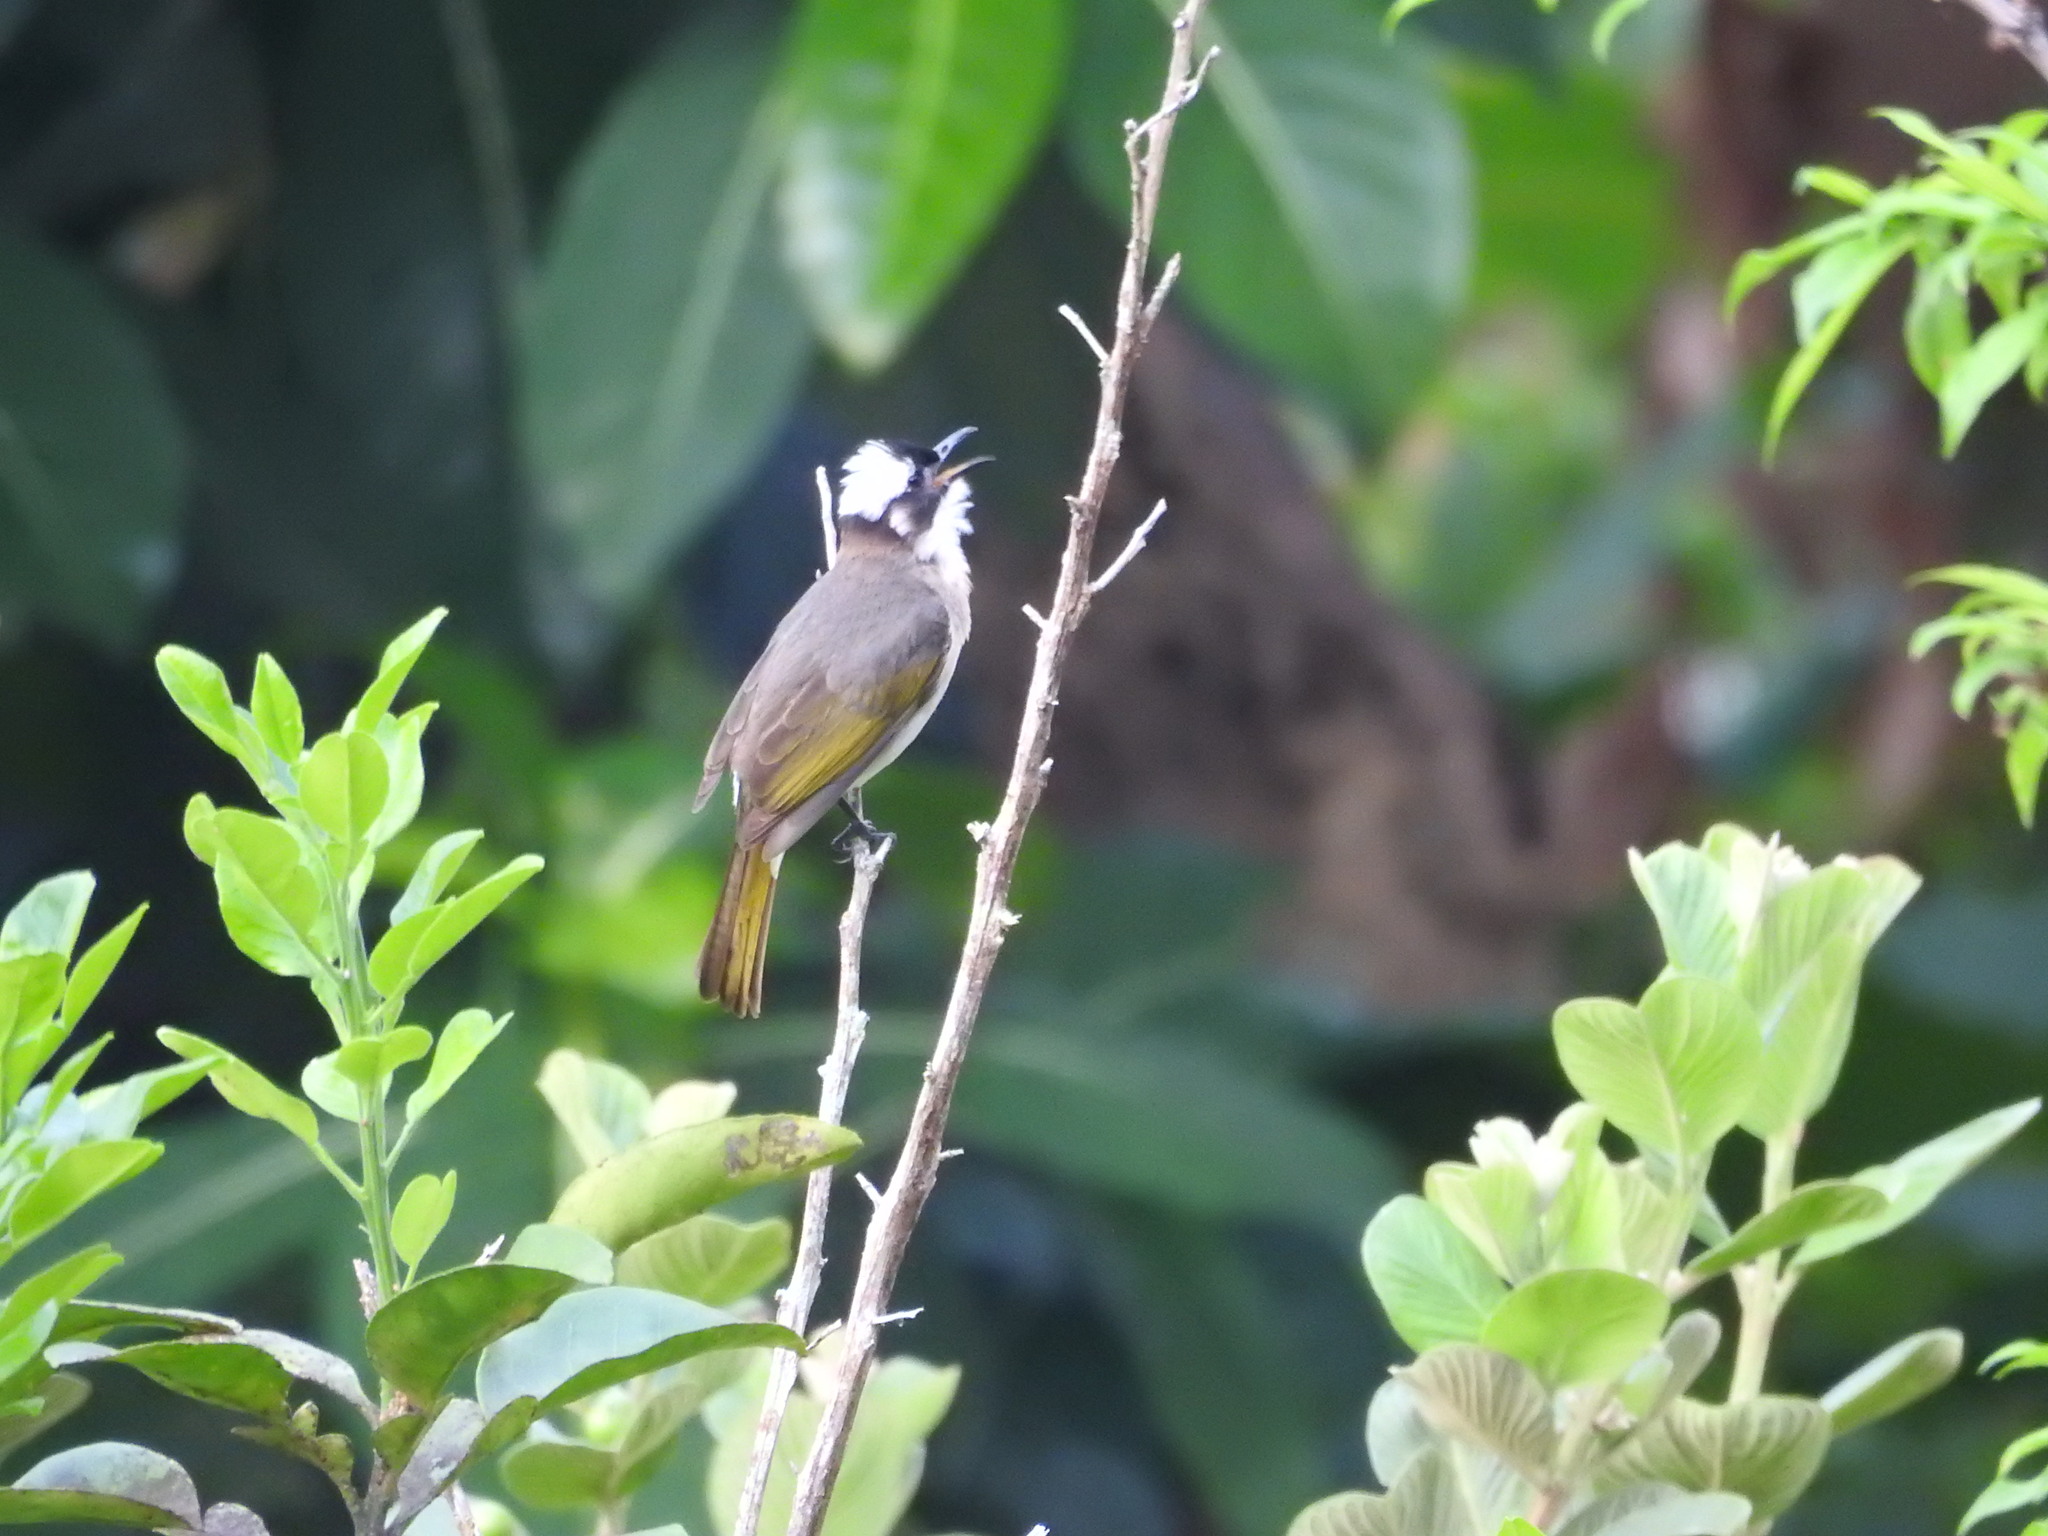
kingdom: Animalia
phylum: Chordata
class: Aves
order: Passeriformes
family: Pycnonotidae
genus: Pycnonotus
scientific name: Pycnonotus sinensis
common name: Light-vented bulbul
